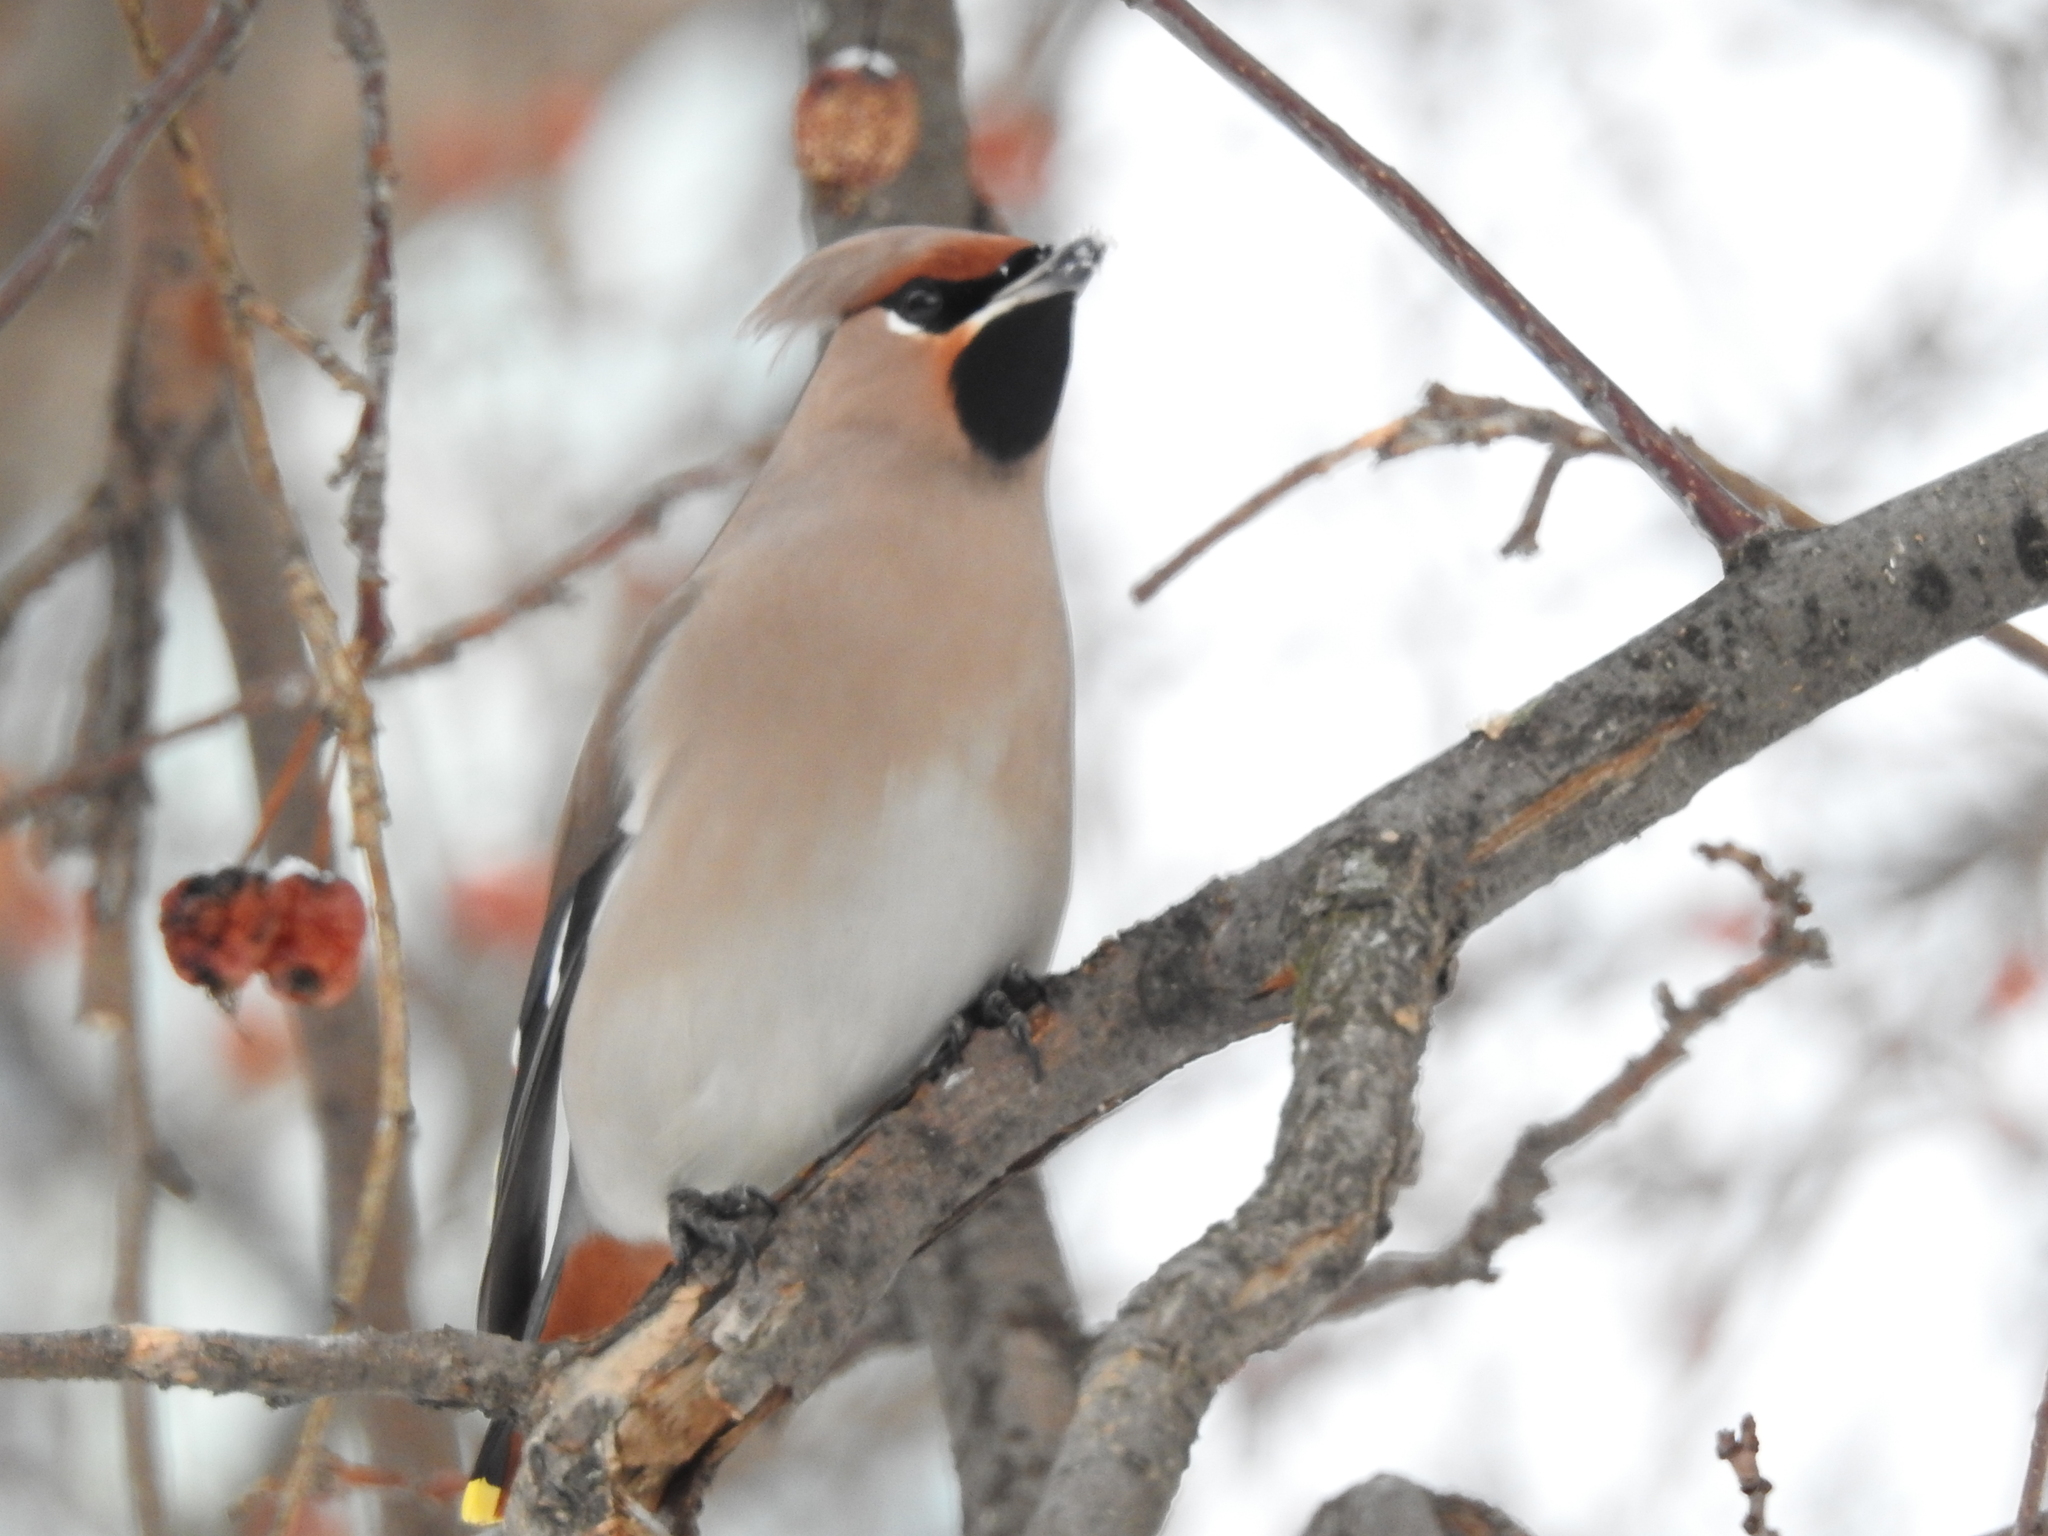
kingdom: Animalia
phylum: Chordata
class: Aves
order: Passeriformes
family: Bombycillidae
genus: Bombycilla
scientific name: Bombycilla garrulus
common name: Bohemian waxwing
